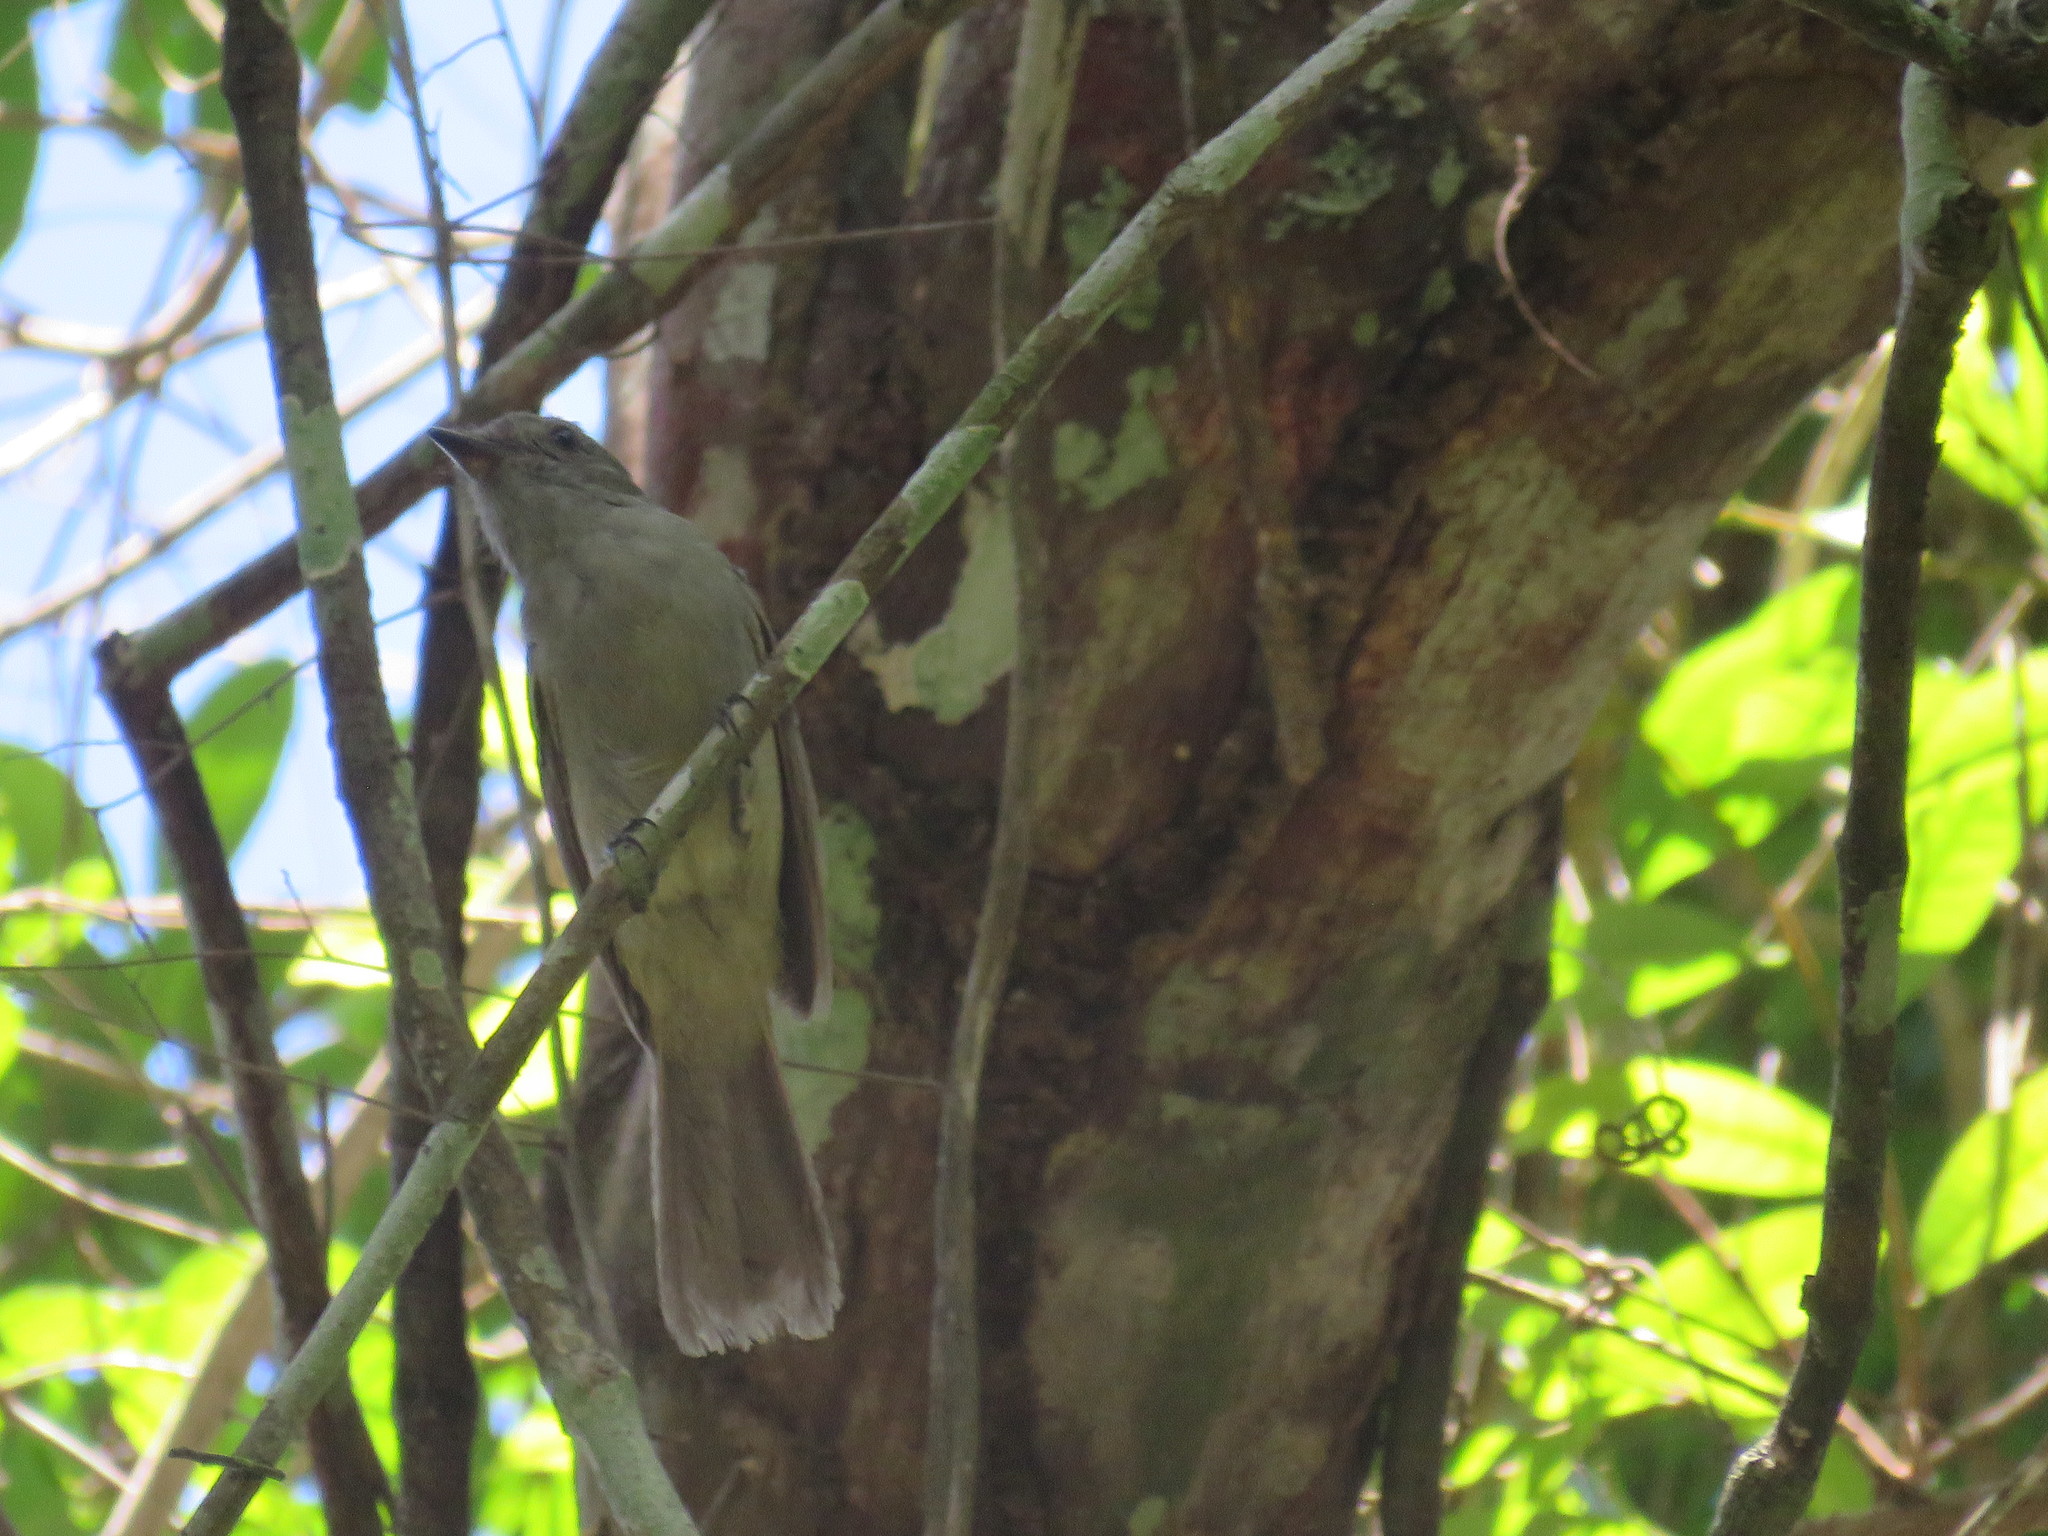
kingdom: Animalia
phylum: Chordata
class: Aves
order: Passeriformes
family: Tyrannidae
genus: Rhytipterna
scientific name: Rhytipterna simplex
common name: Greyish mourner
